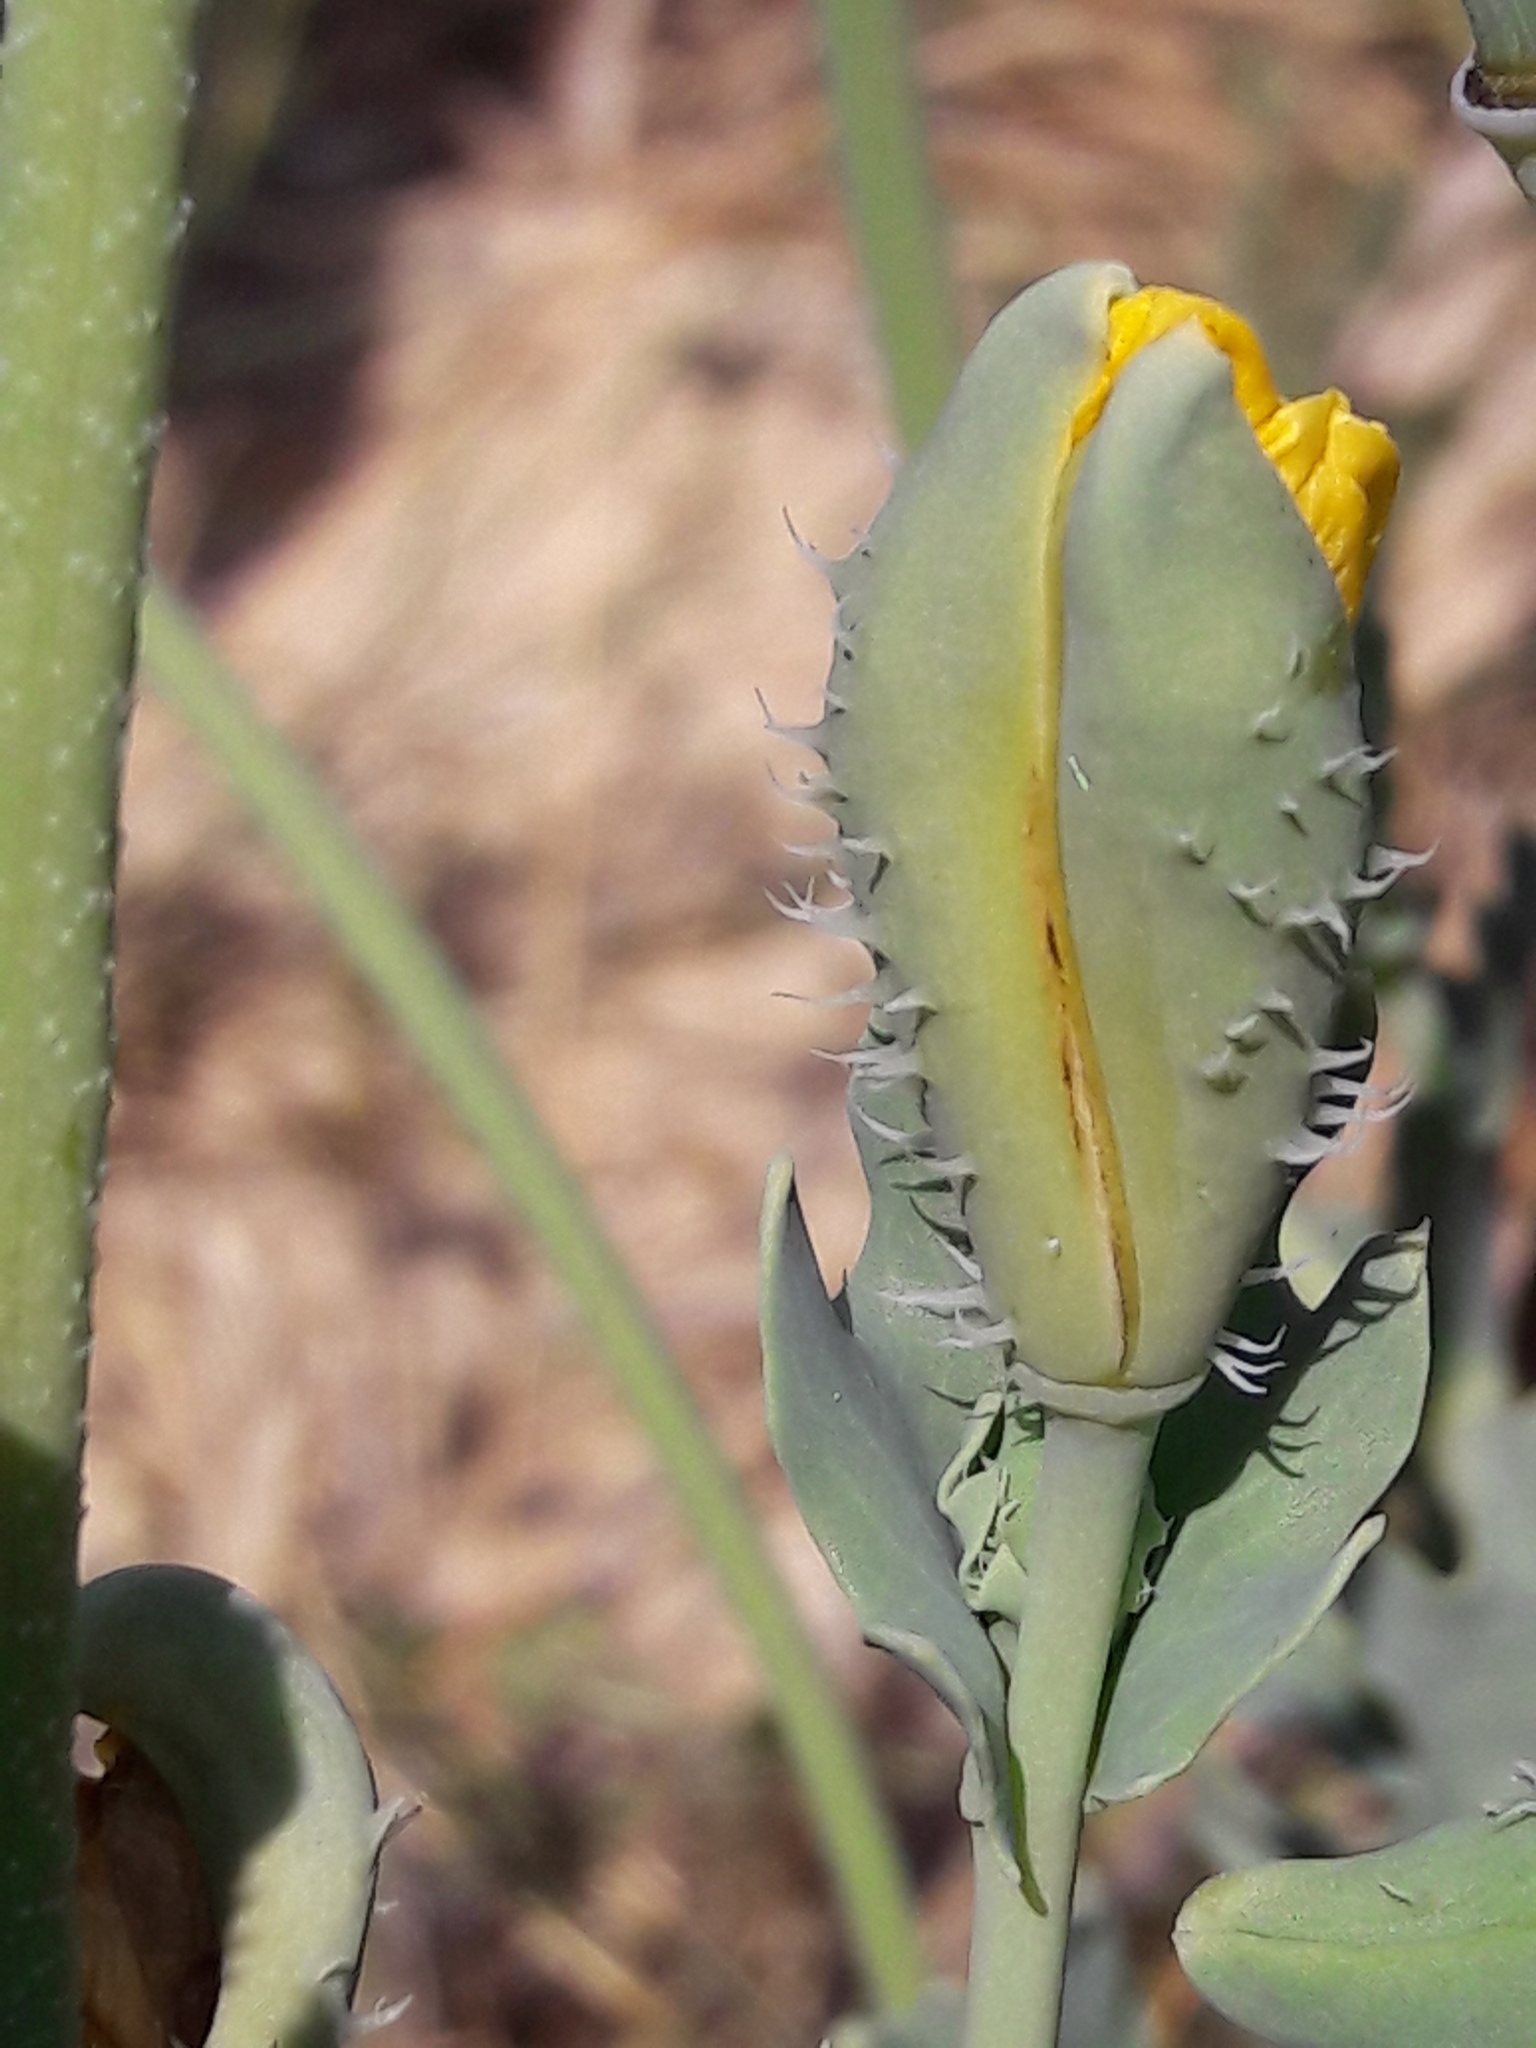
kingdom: Plantae
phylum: Tracheophyta
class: Magnoliopsida
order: Ranunculales
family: Papaveraceae
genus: Glaucium
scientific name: Glaucium flavum
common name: Yellow horned-poppy
